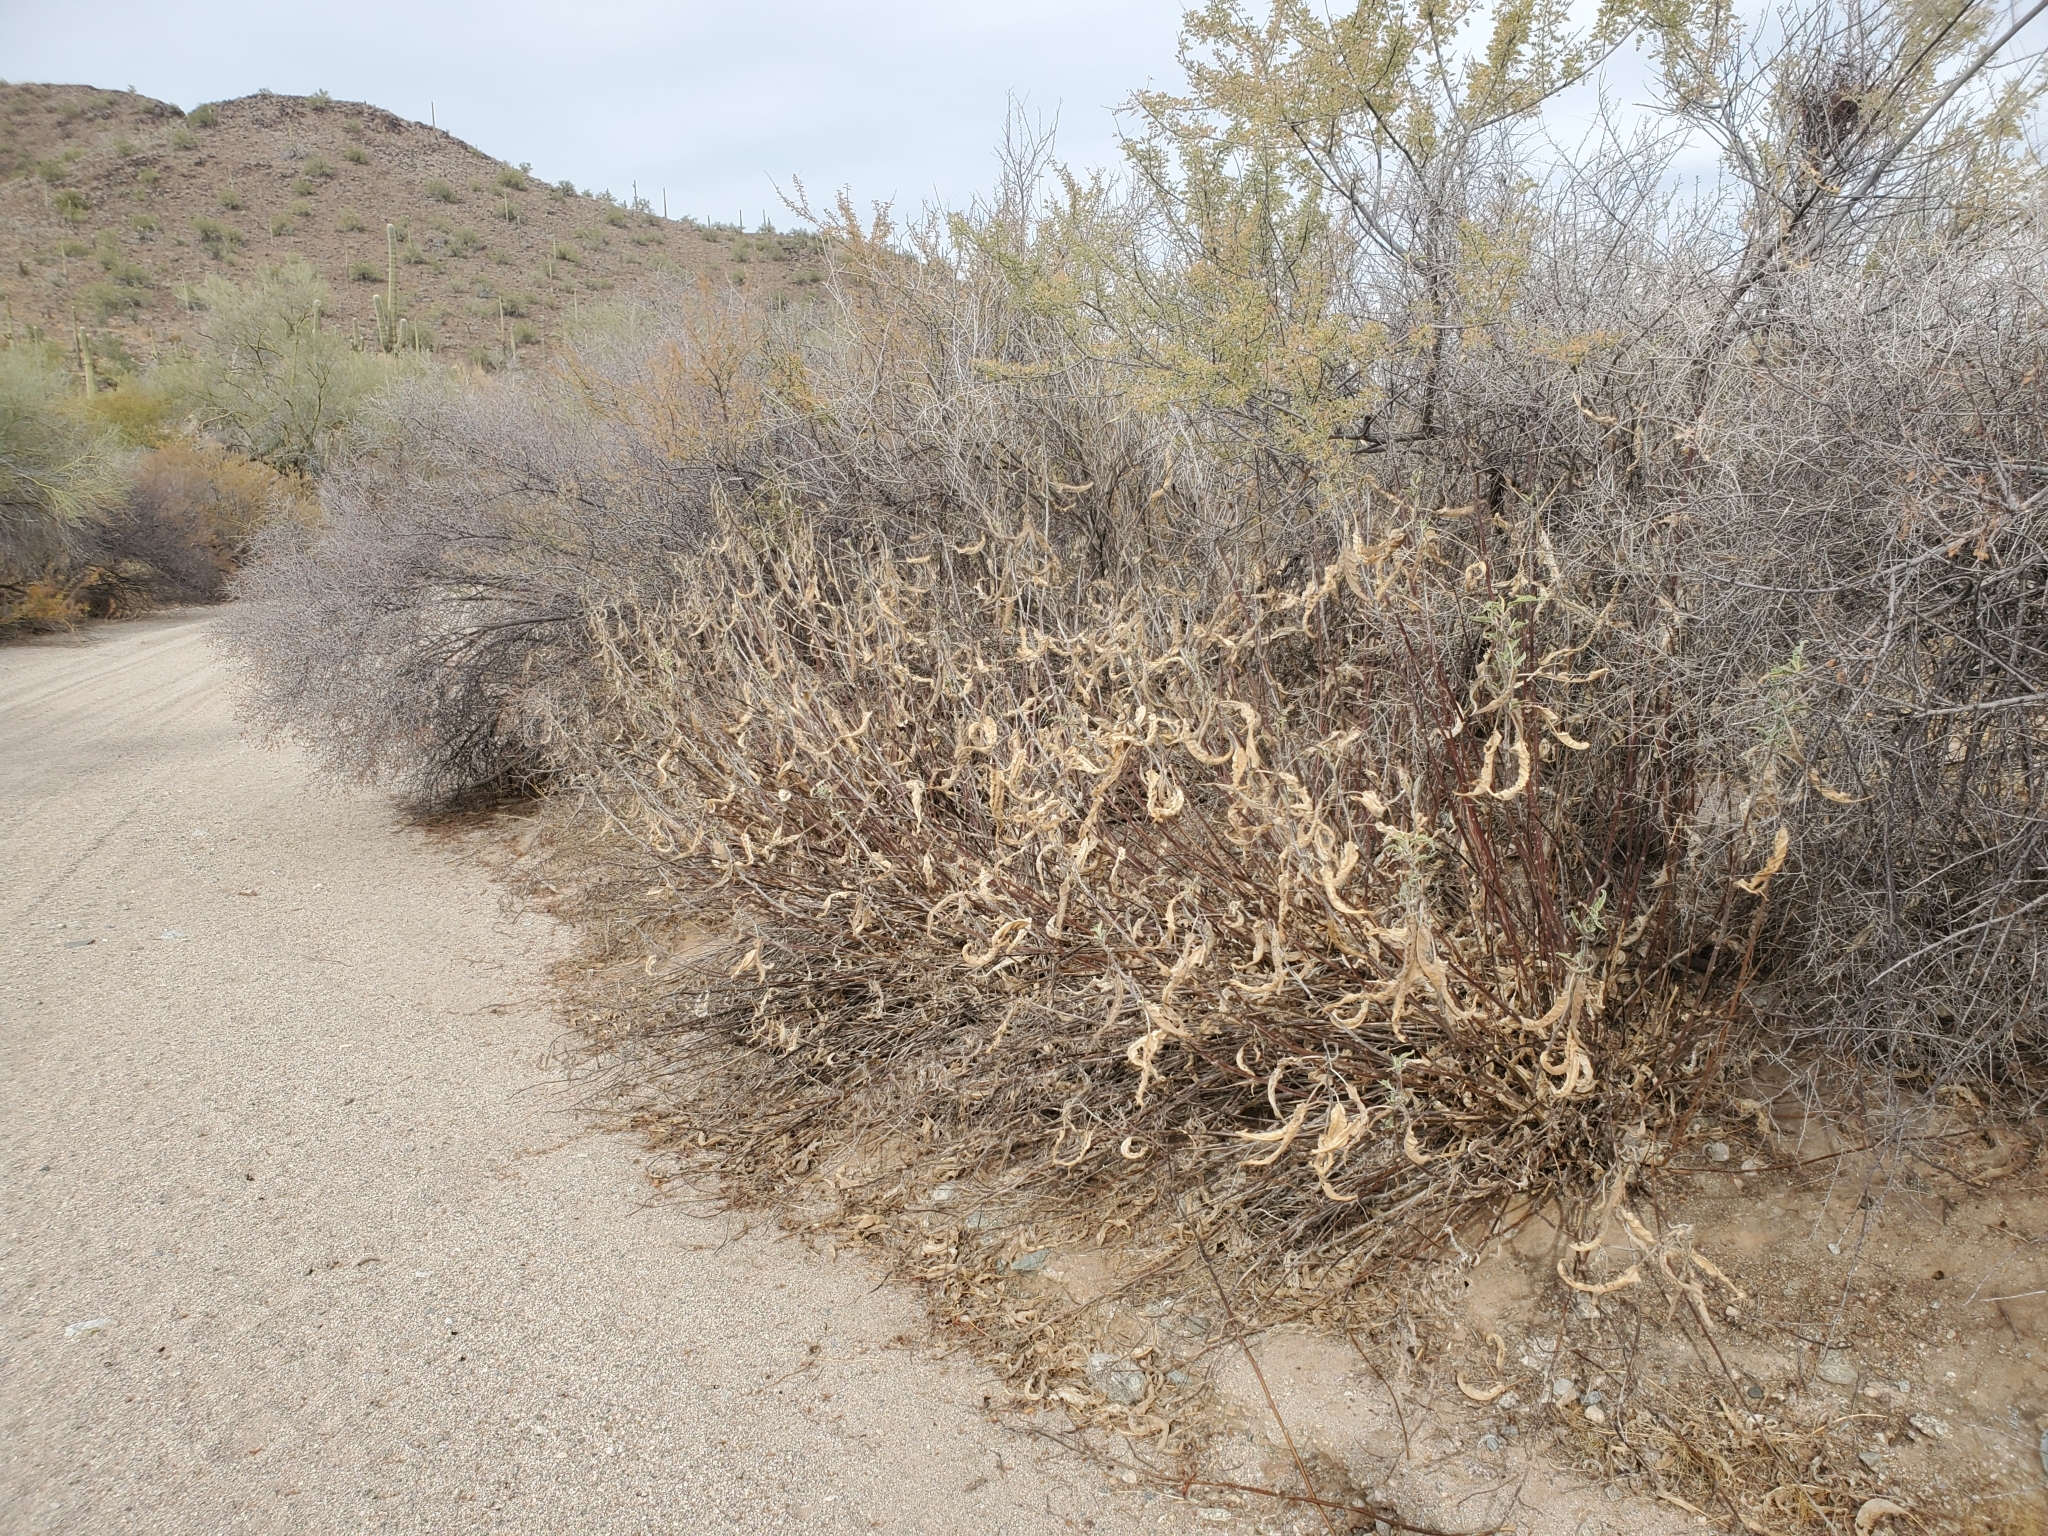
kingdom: Plantae
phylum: Tracheophyta
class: Magnoliopsida
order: Asterales
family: Asteraceae
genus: Ambrosia
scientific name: Ambrosia ambrosioides
